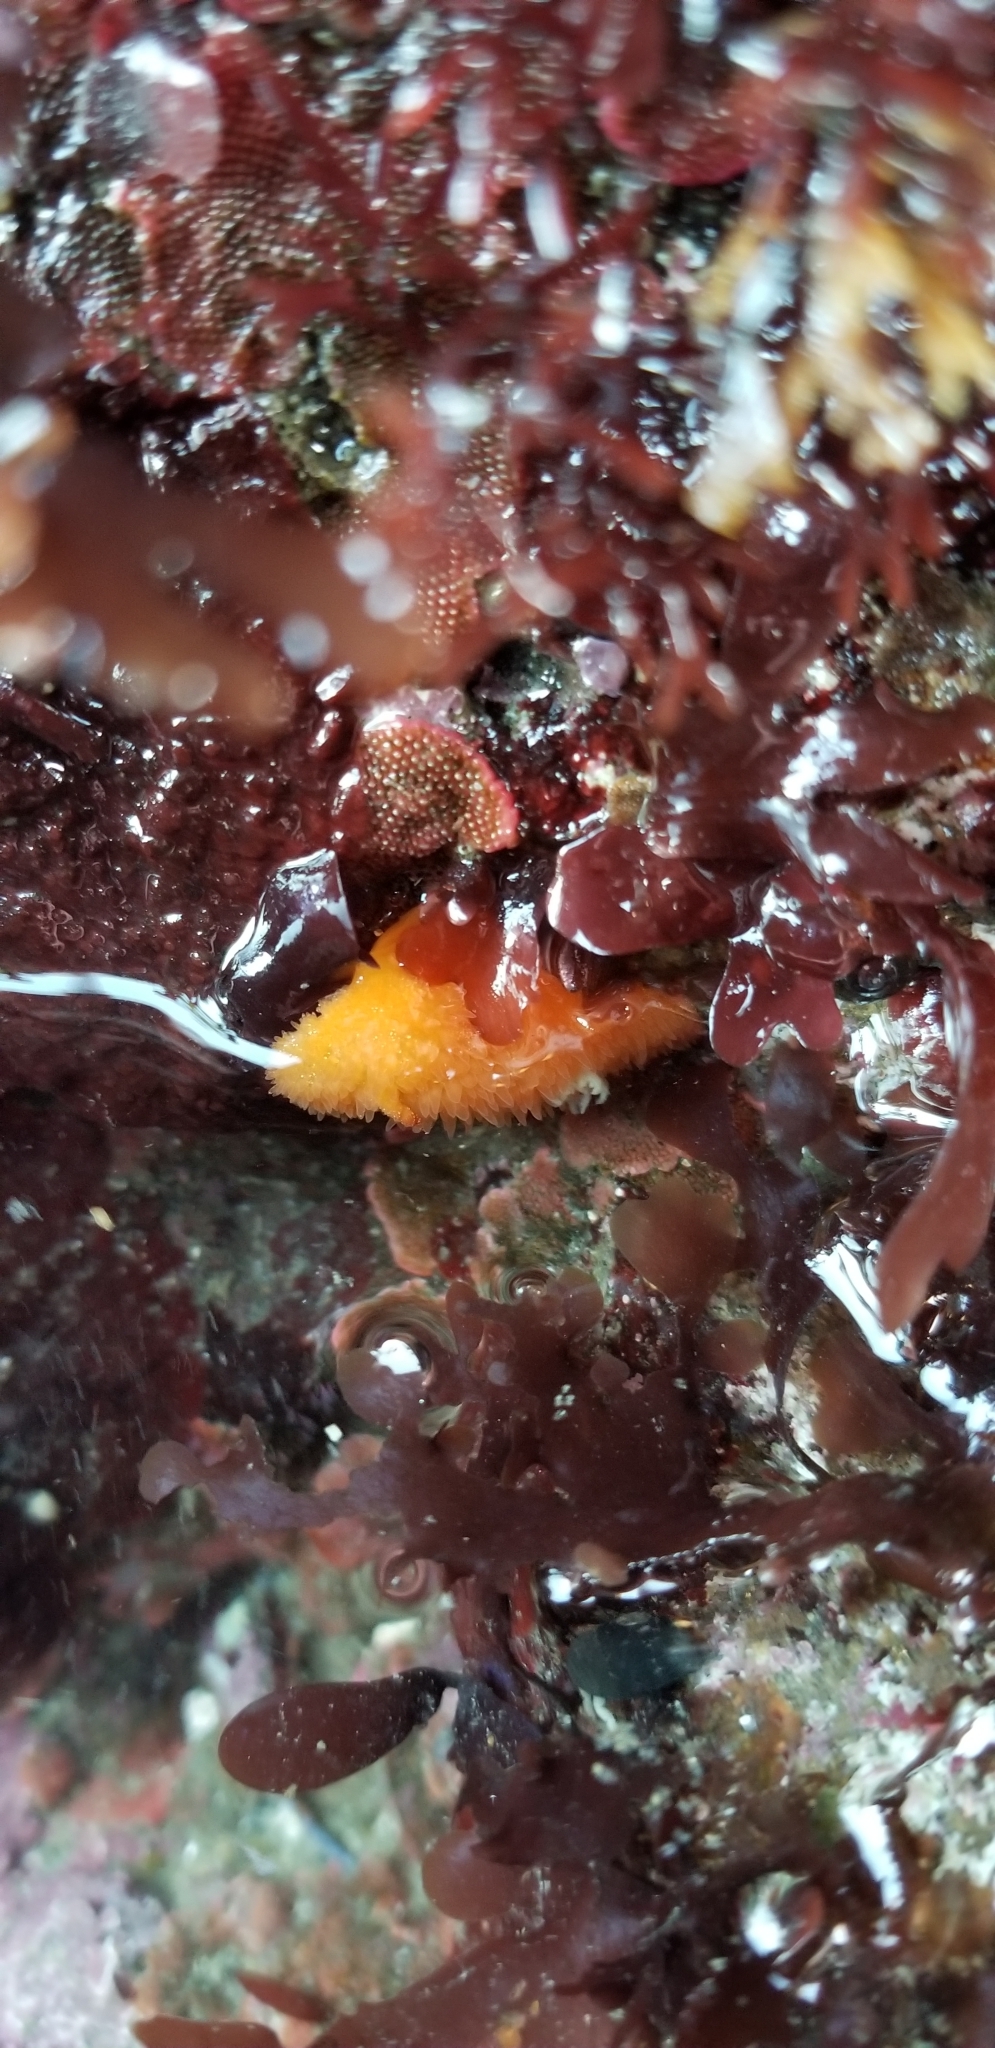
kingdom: Animalia
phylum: Mollusca
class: Gastropoda
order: Nudibranchia
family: Onchidorididae
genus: Acanthodoris
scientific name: Acanthodoris lutea
